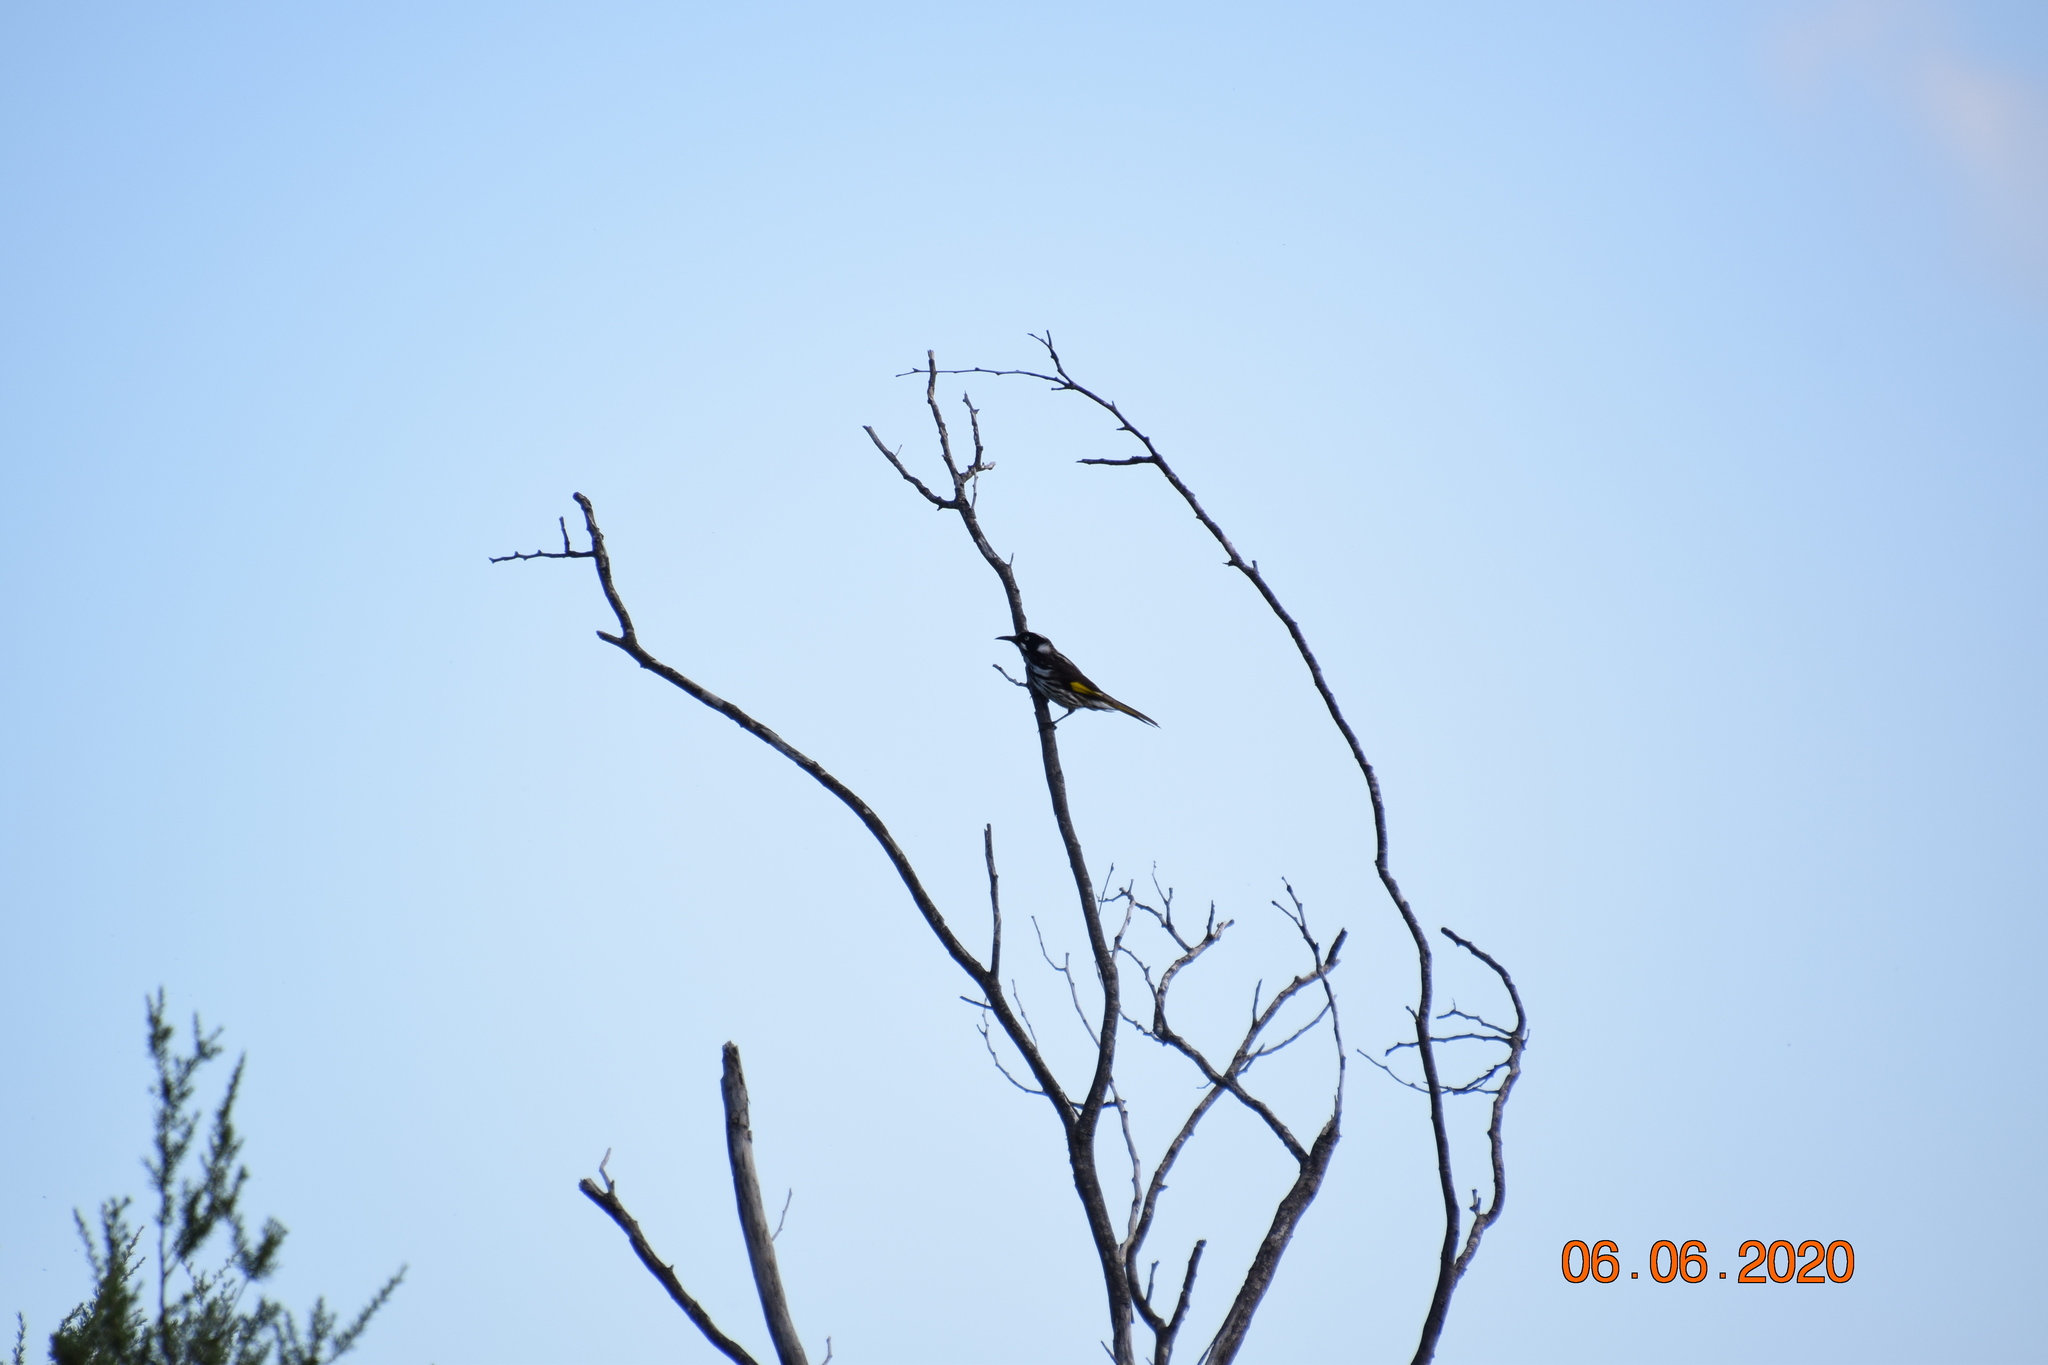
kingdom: Animalia
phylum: Chordata
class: Aves
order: Passeriformes
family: Meliphagidae
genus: Phylidonyris
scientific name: Phylidonyris novaehollandiae
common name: New holland honeyeater
